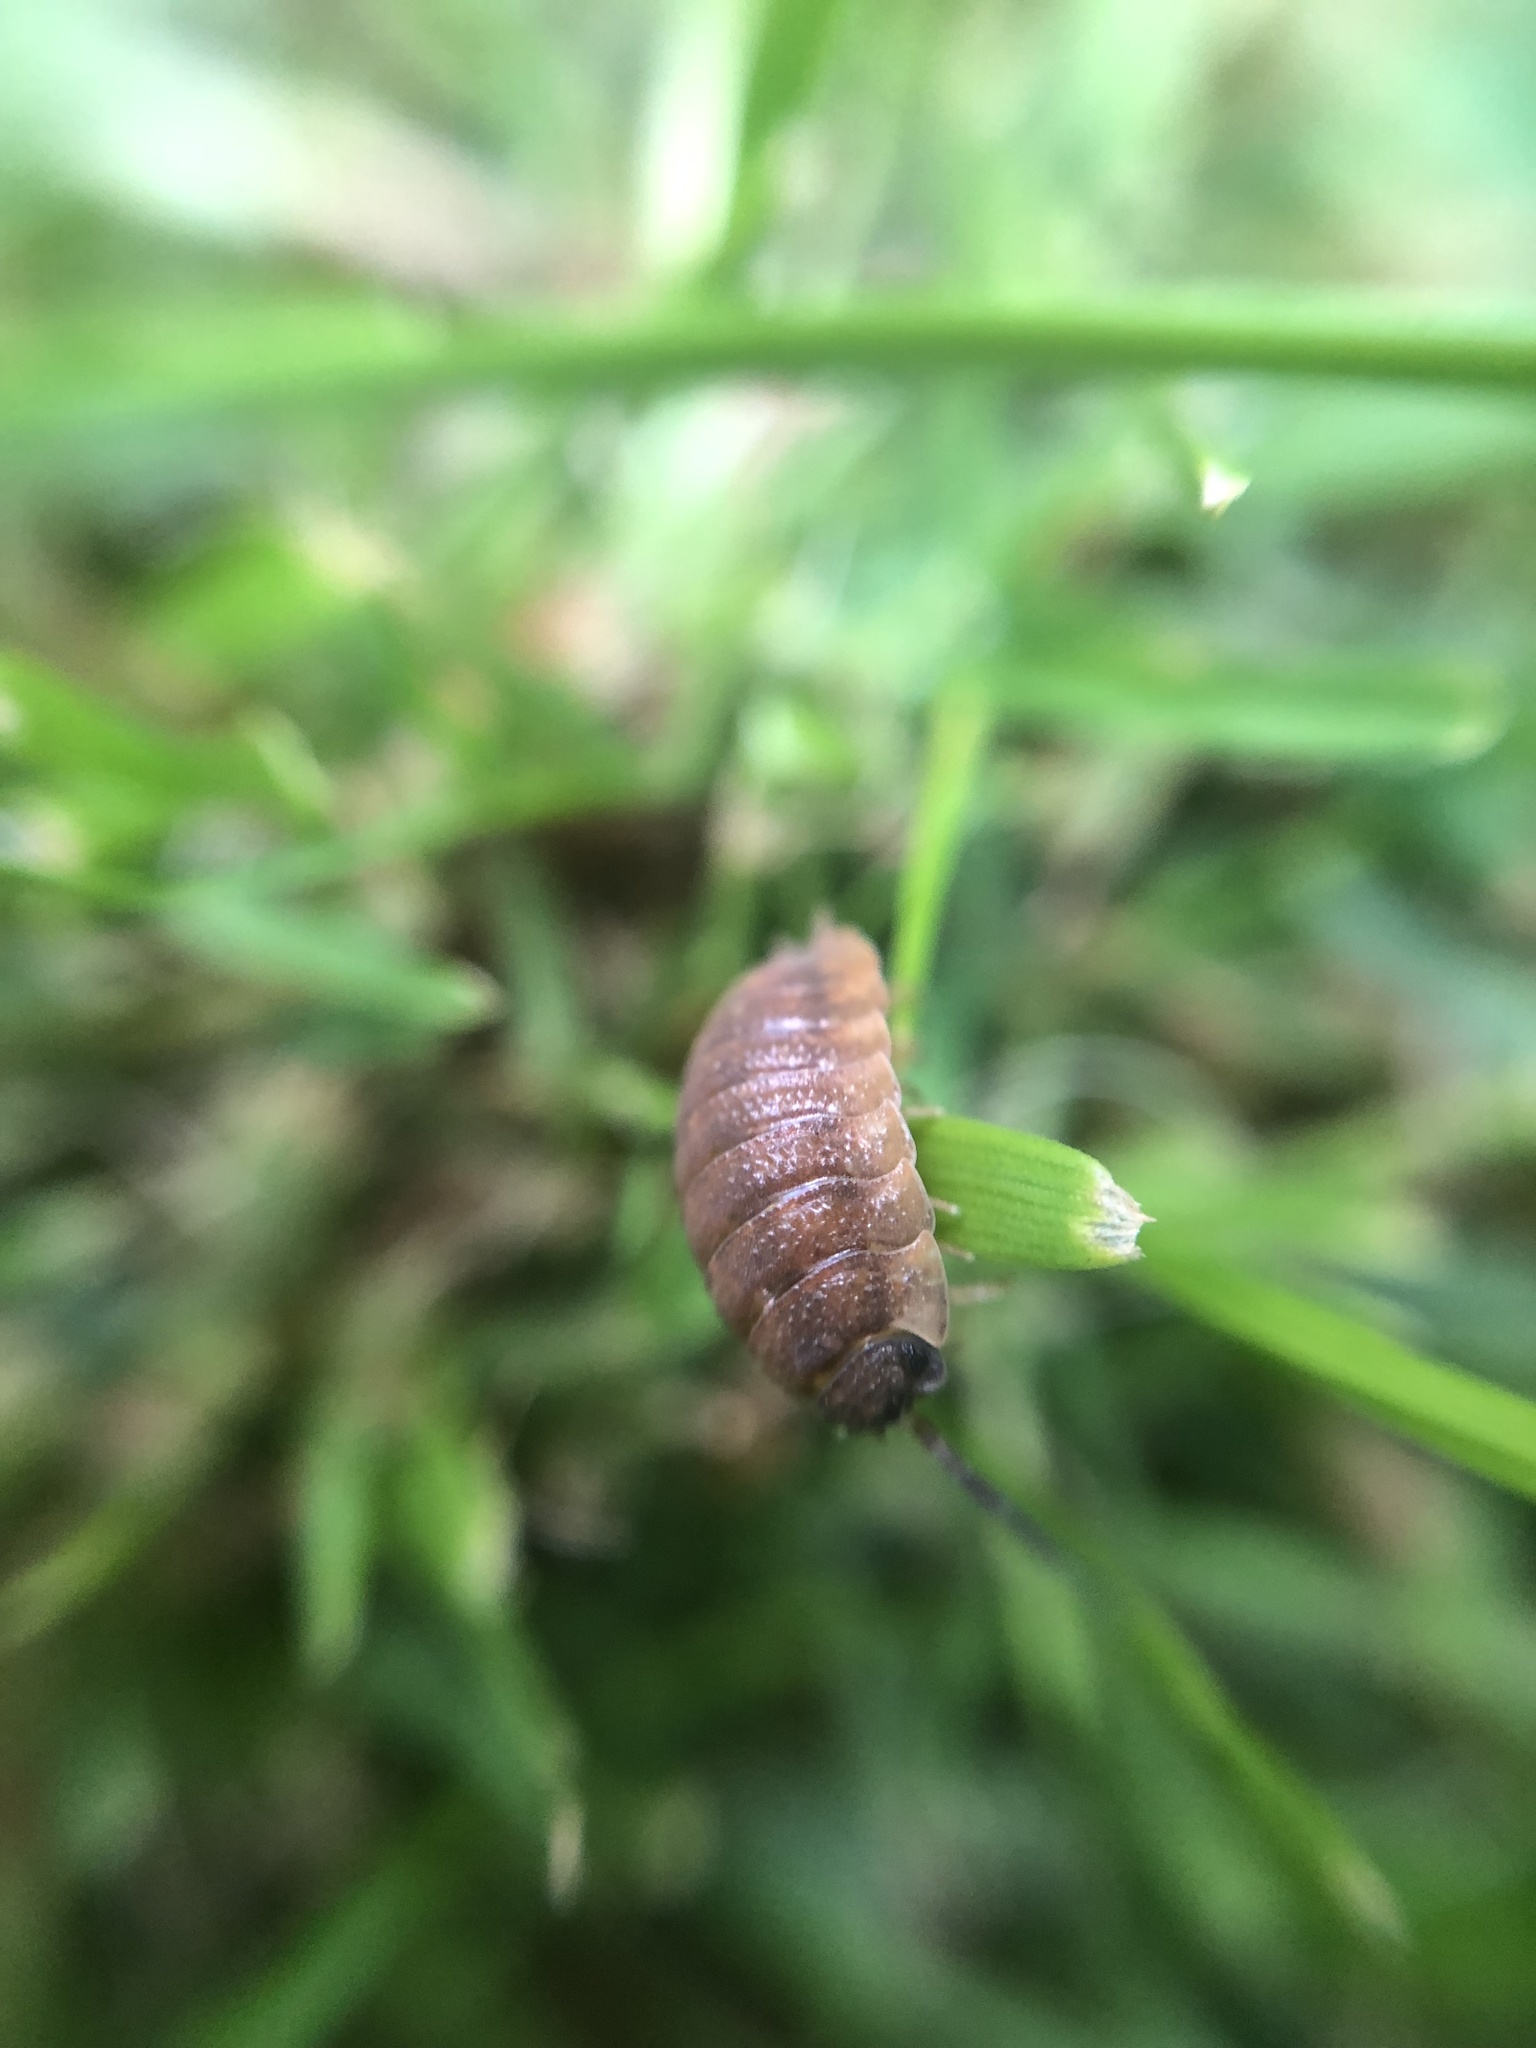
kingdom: Animalia
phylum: Arthropoda
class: Malacostraca
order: Isopoda
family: Porcellionidae
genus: Porcellio
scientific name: Porcellio scaber
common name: Common rough woodlouse
